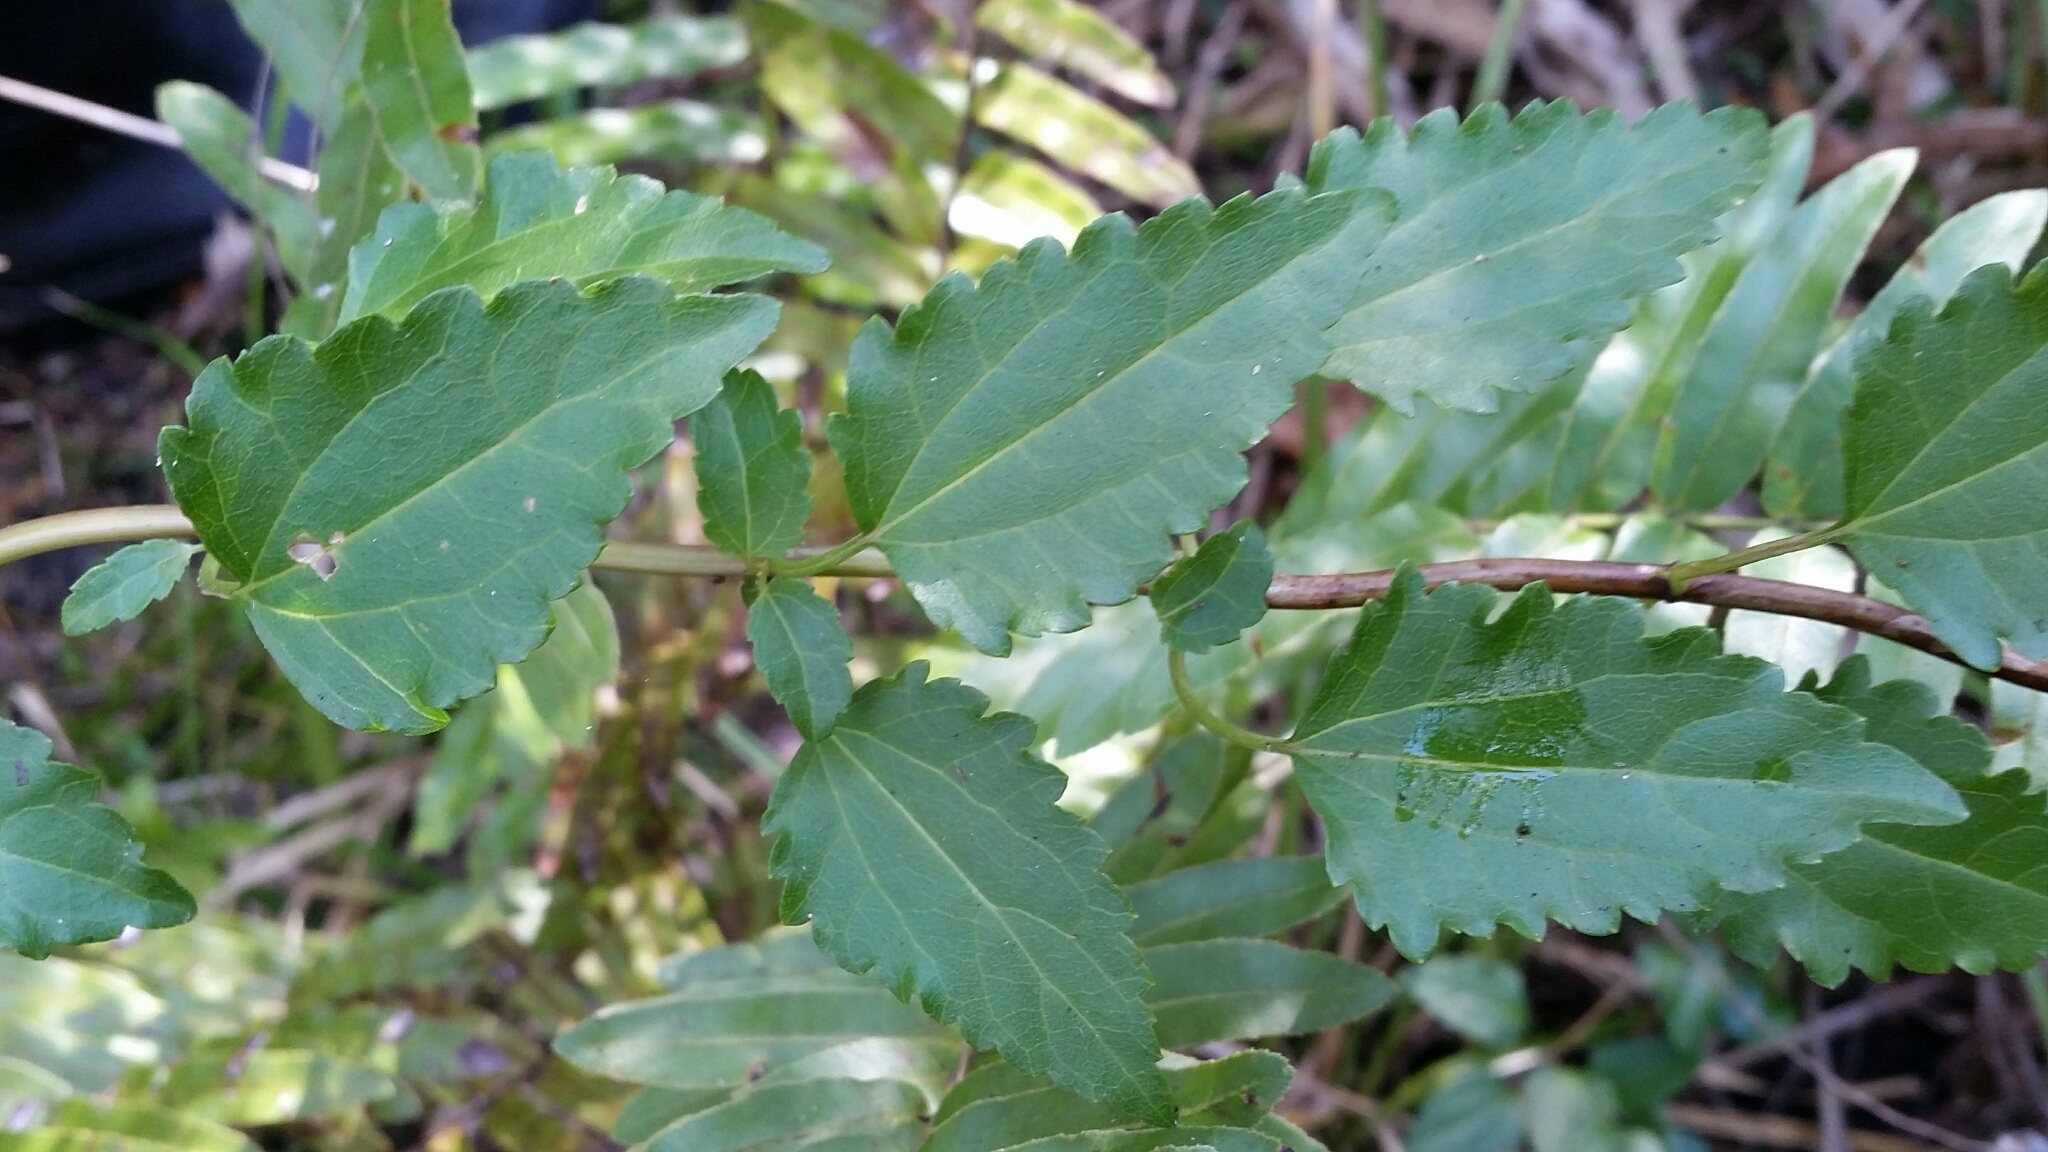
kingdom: Plantae
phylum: Tracheophyta
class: Magnoliopsida
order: Asterales
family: Asteraceae
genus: Ageratina
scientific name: Ageratina jucunda
